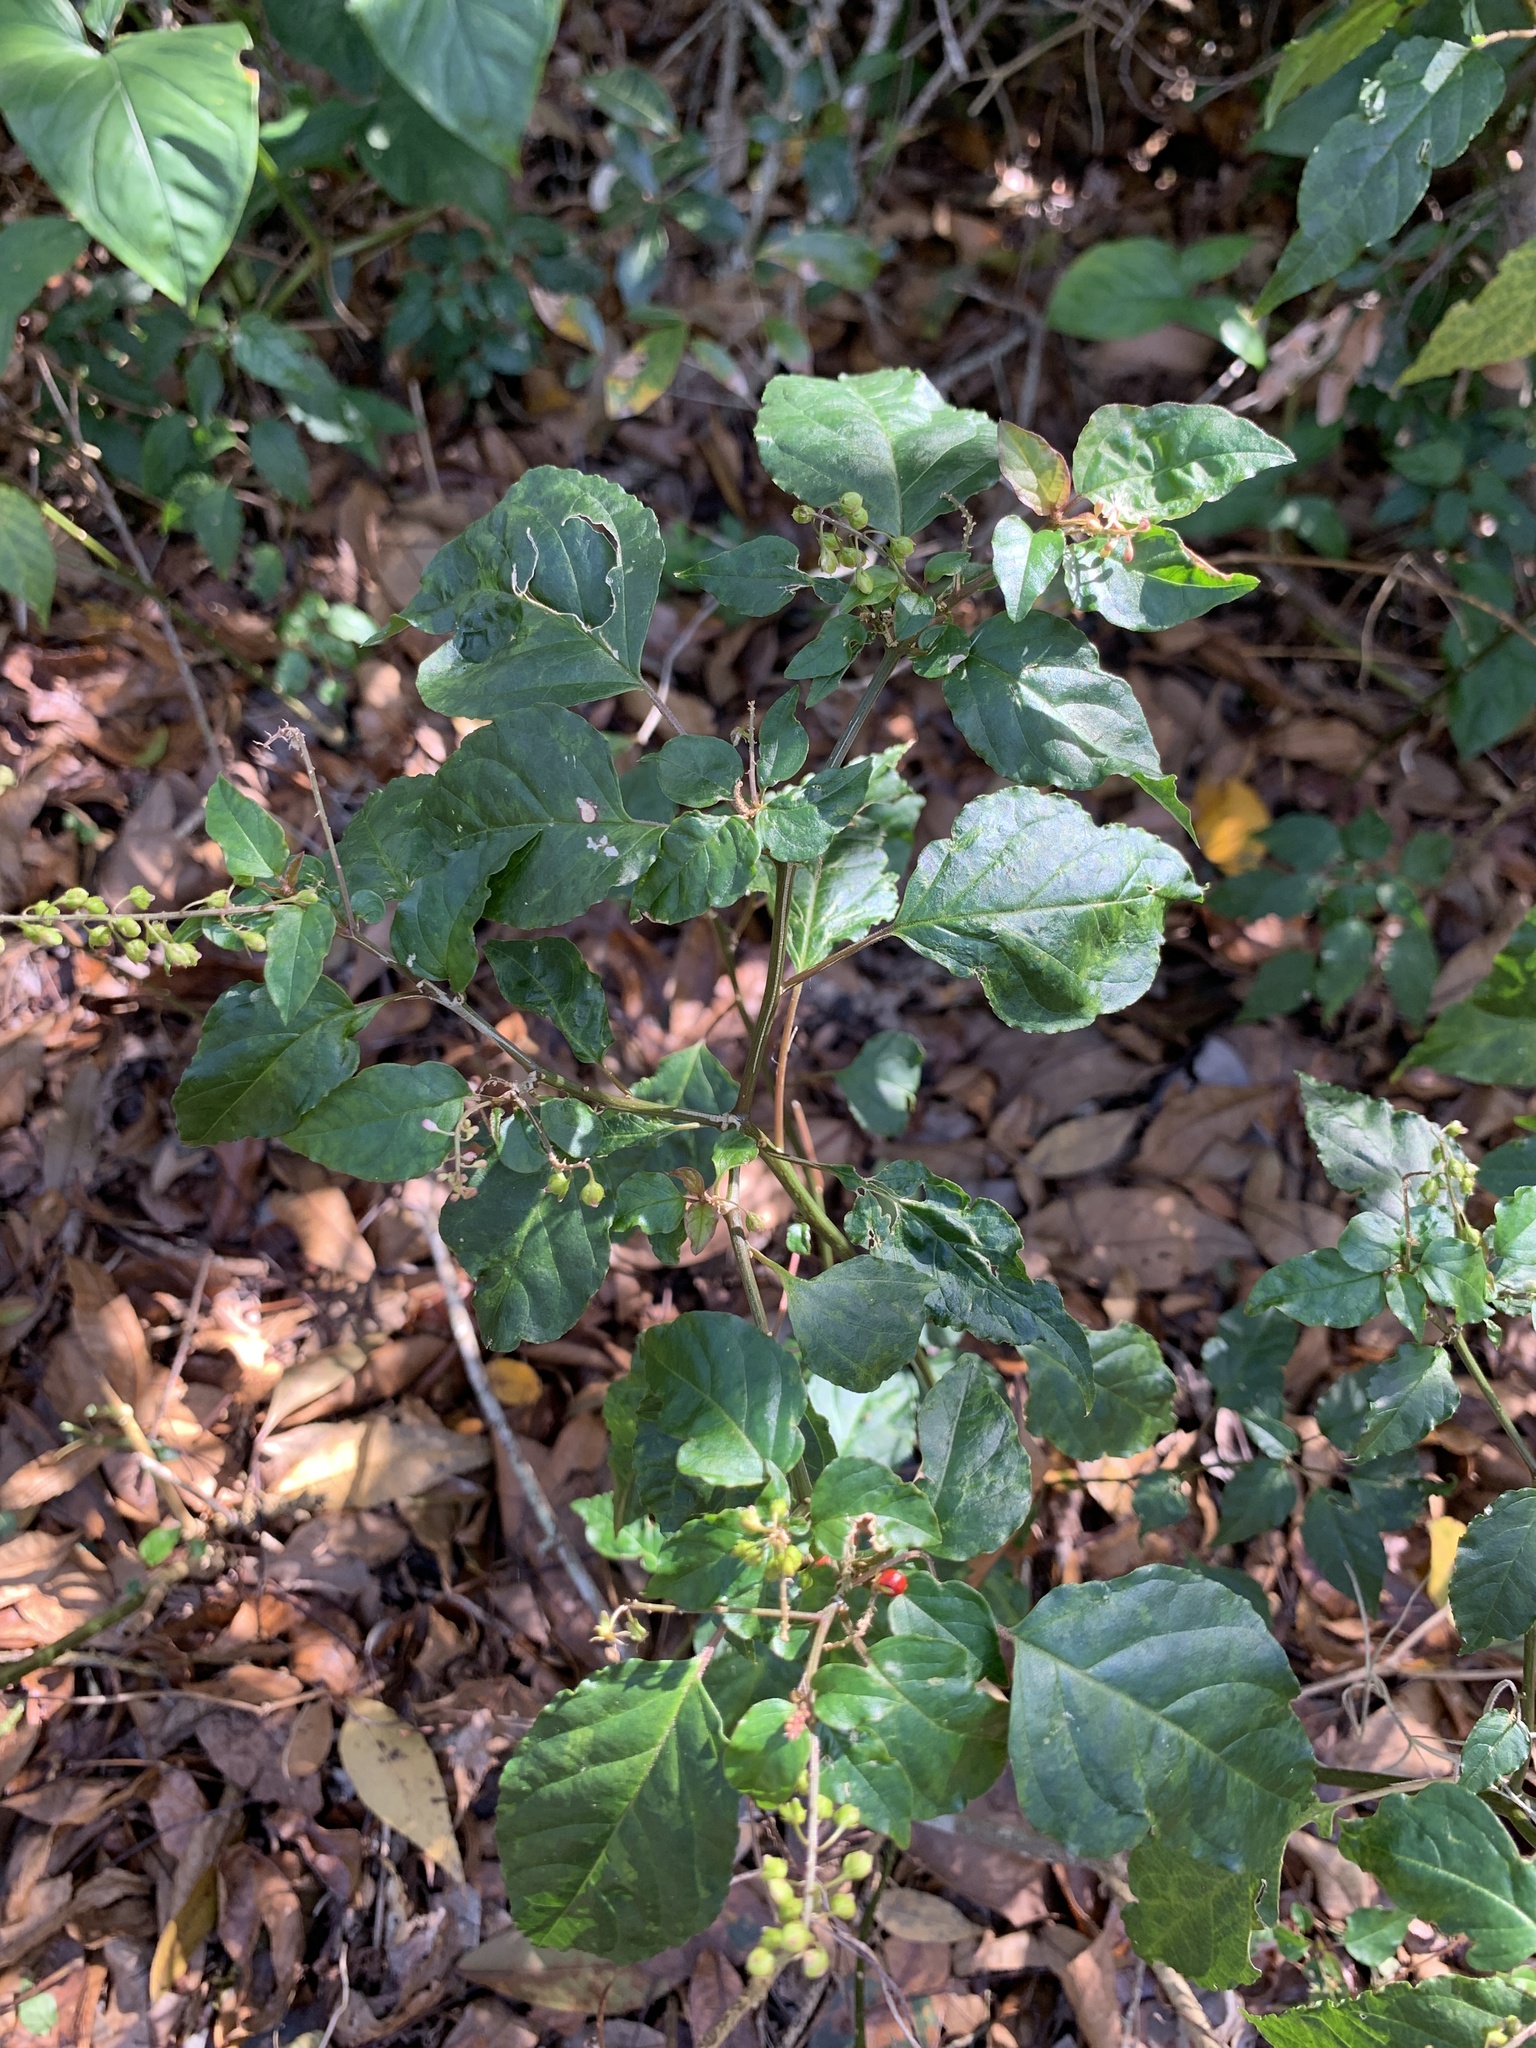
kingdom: Plantae
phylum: Tracheophyta
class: Magnoliopsida
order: Caryophyllales
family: Phytolaccaceae
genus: Rivina
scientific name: Rivina humilis
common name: Rougeplant
